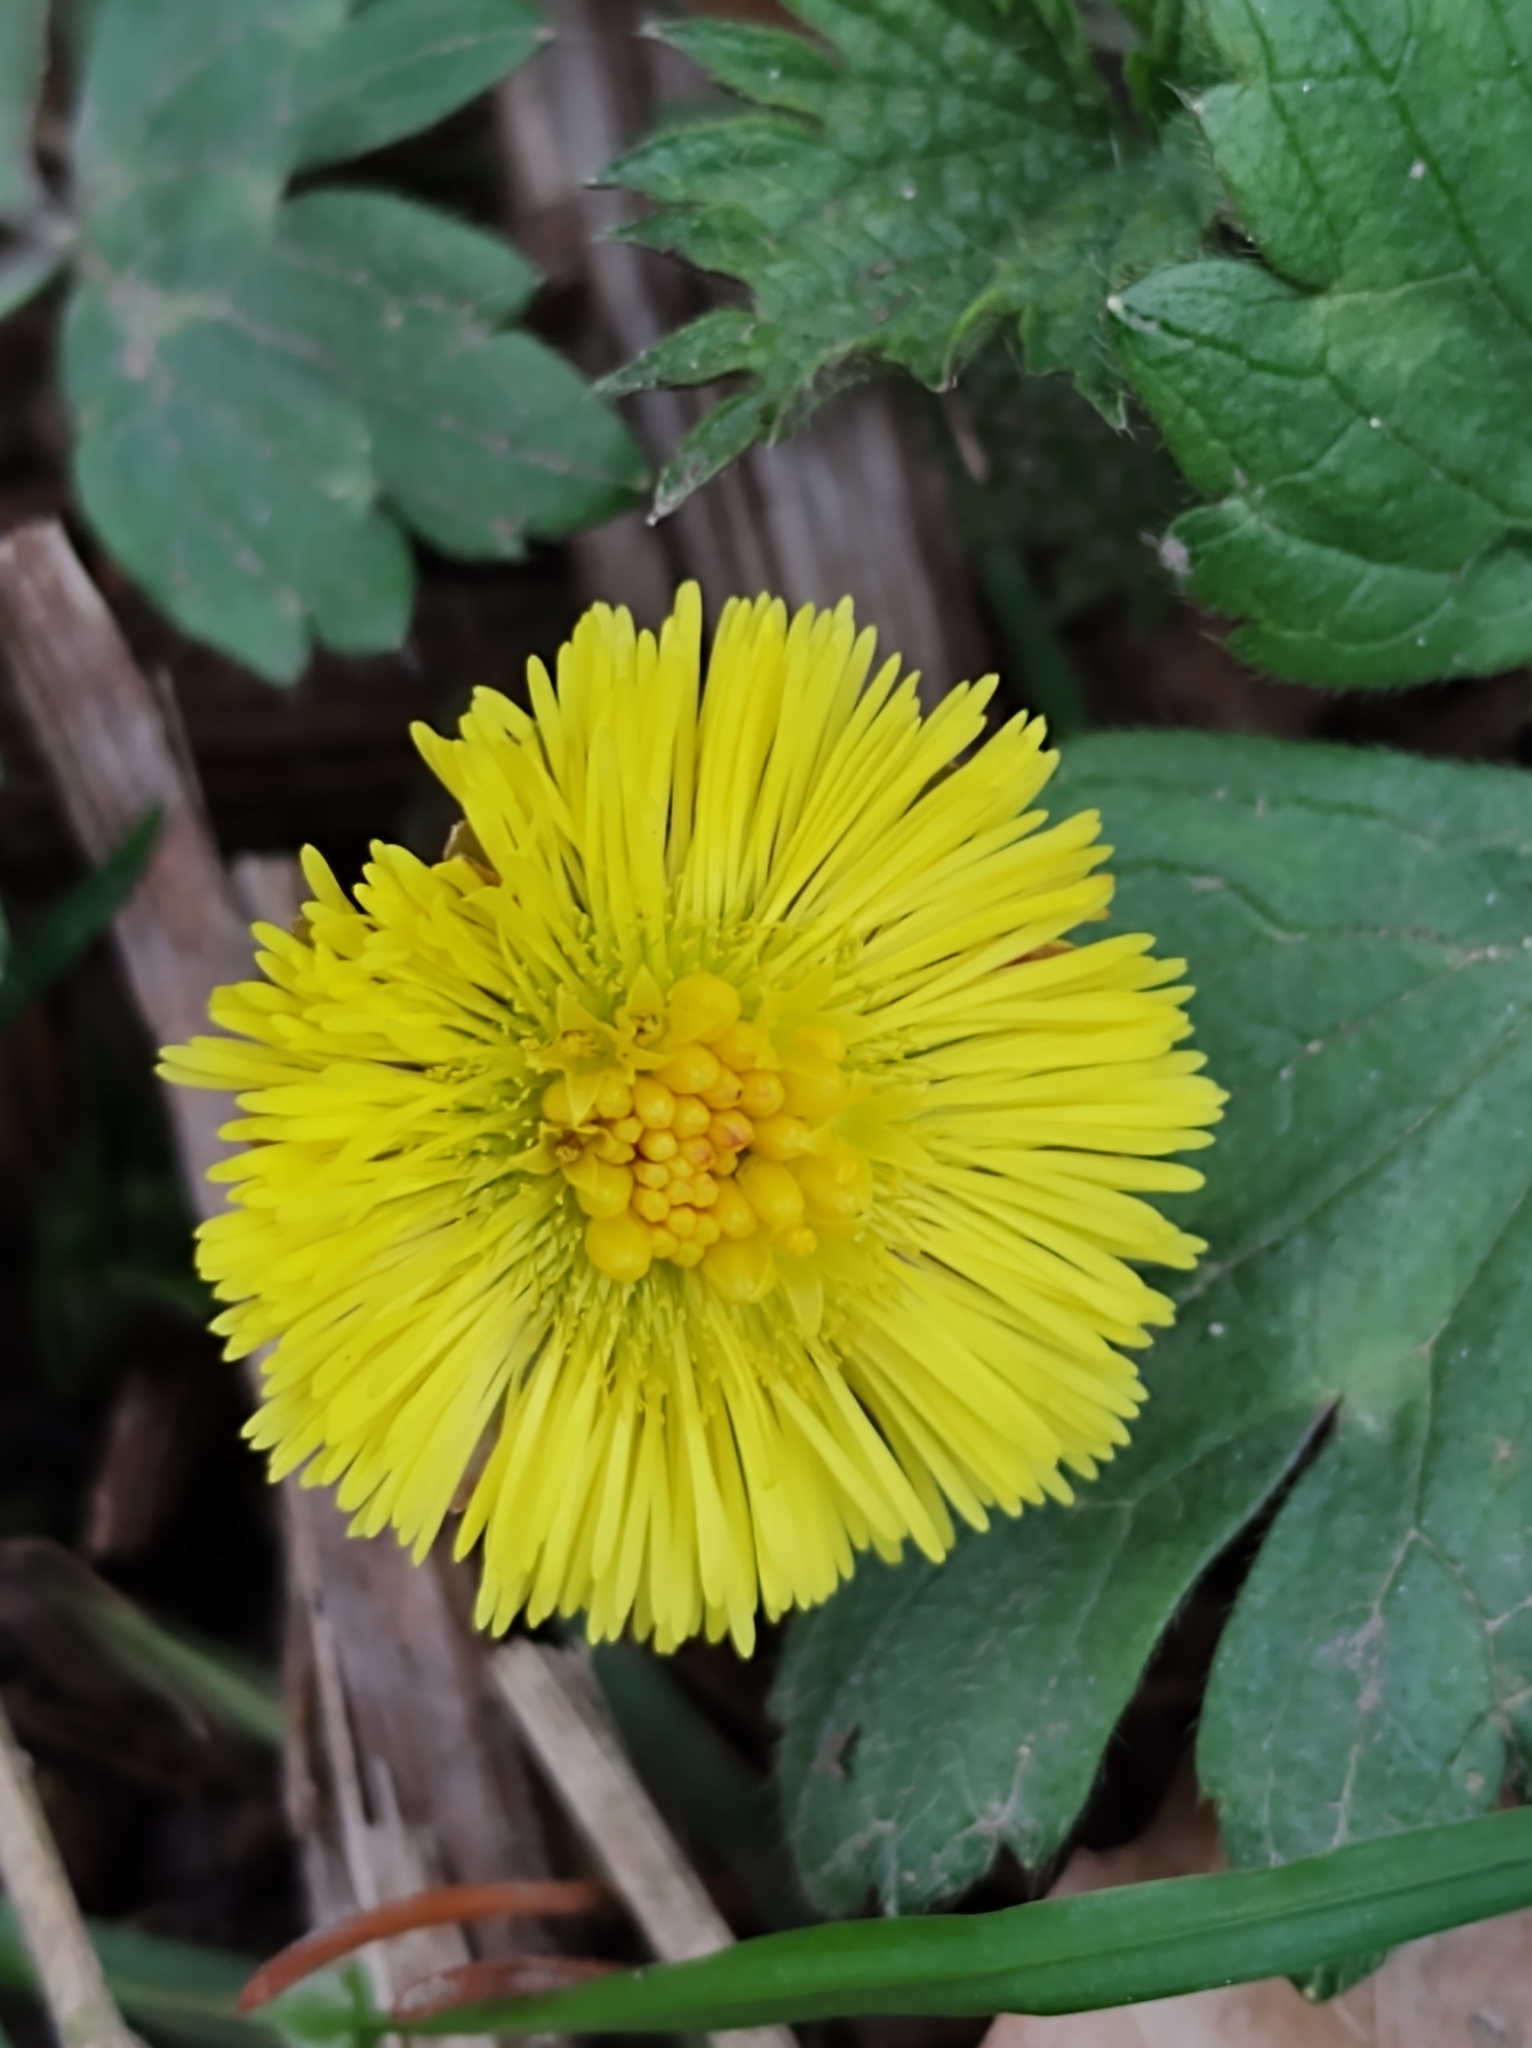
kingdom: Plantae
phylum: Tracheophyta
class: Magnoliopsida
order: Asterales
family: Asteraceae
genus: Tussilago
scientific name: Tussilago farfara
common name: Coltsfoot
